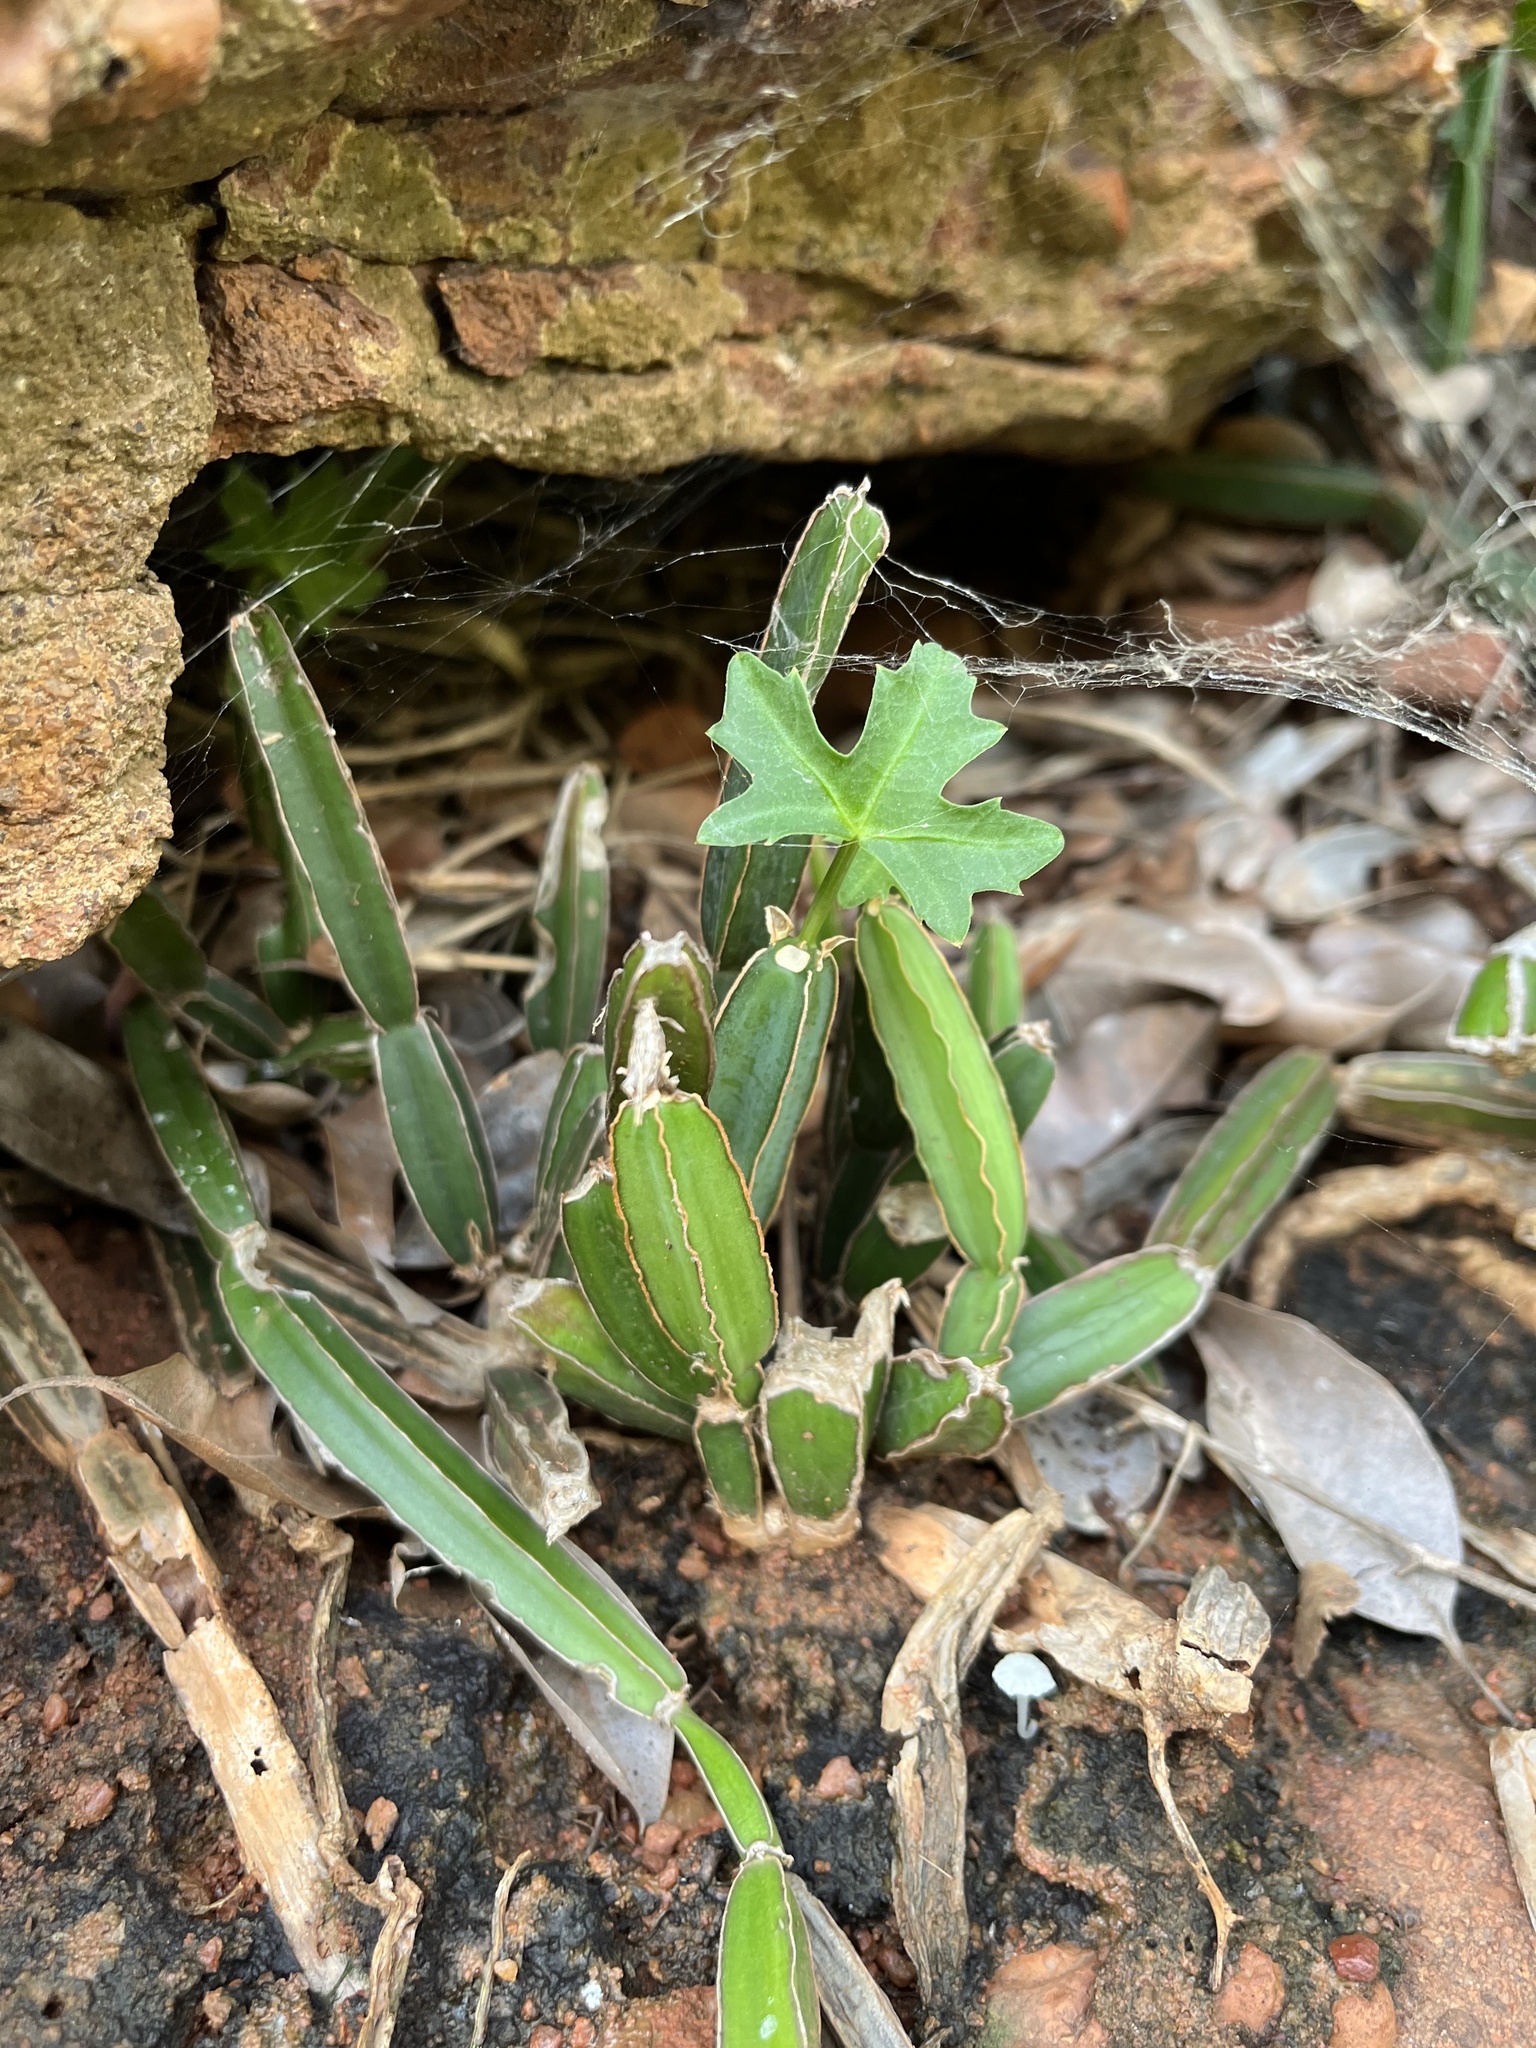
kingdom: Plantae
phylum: Tracheophyta
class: Magnoliopsida
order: Vitales
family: Vitaceae
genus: Cissus
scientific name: Cissus quadrangularis
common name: Veldt-grape
